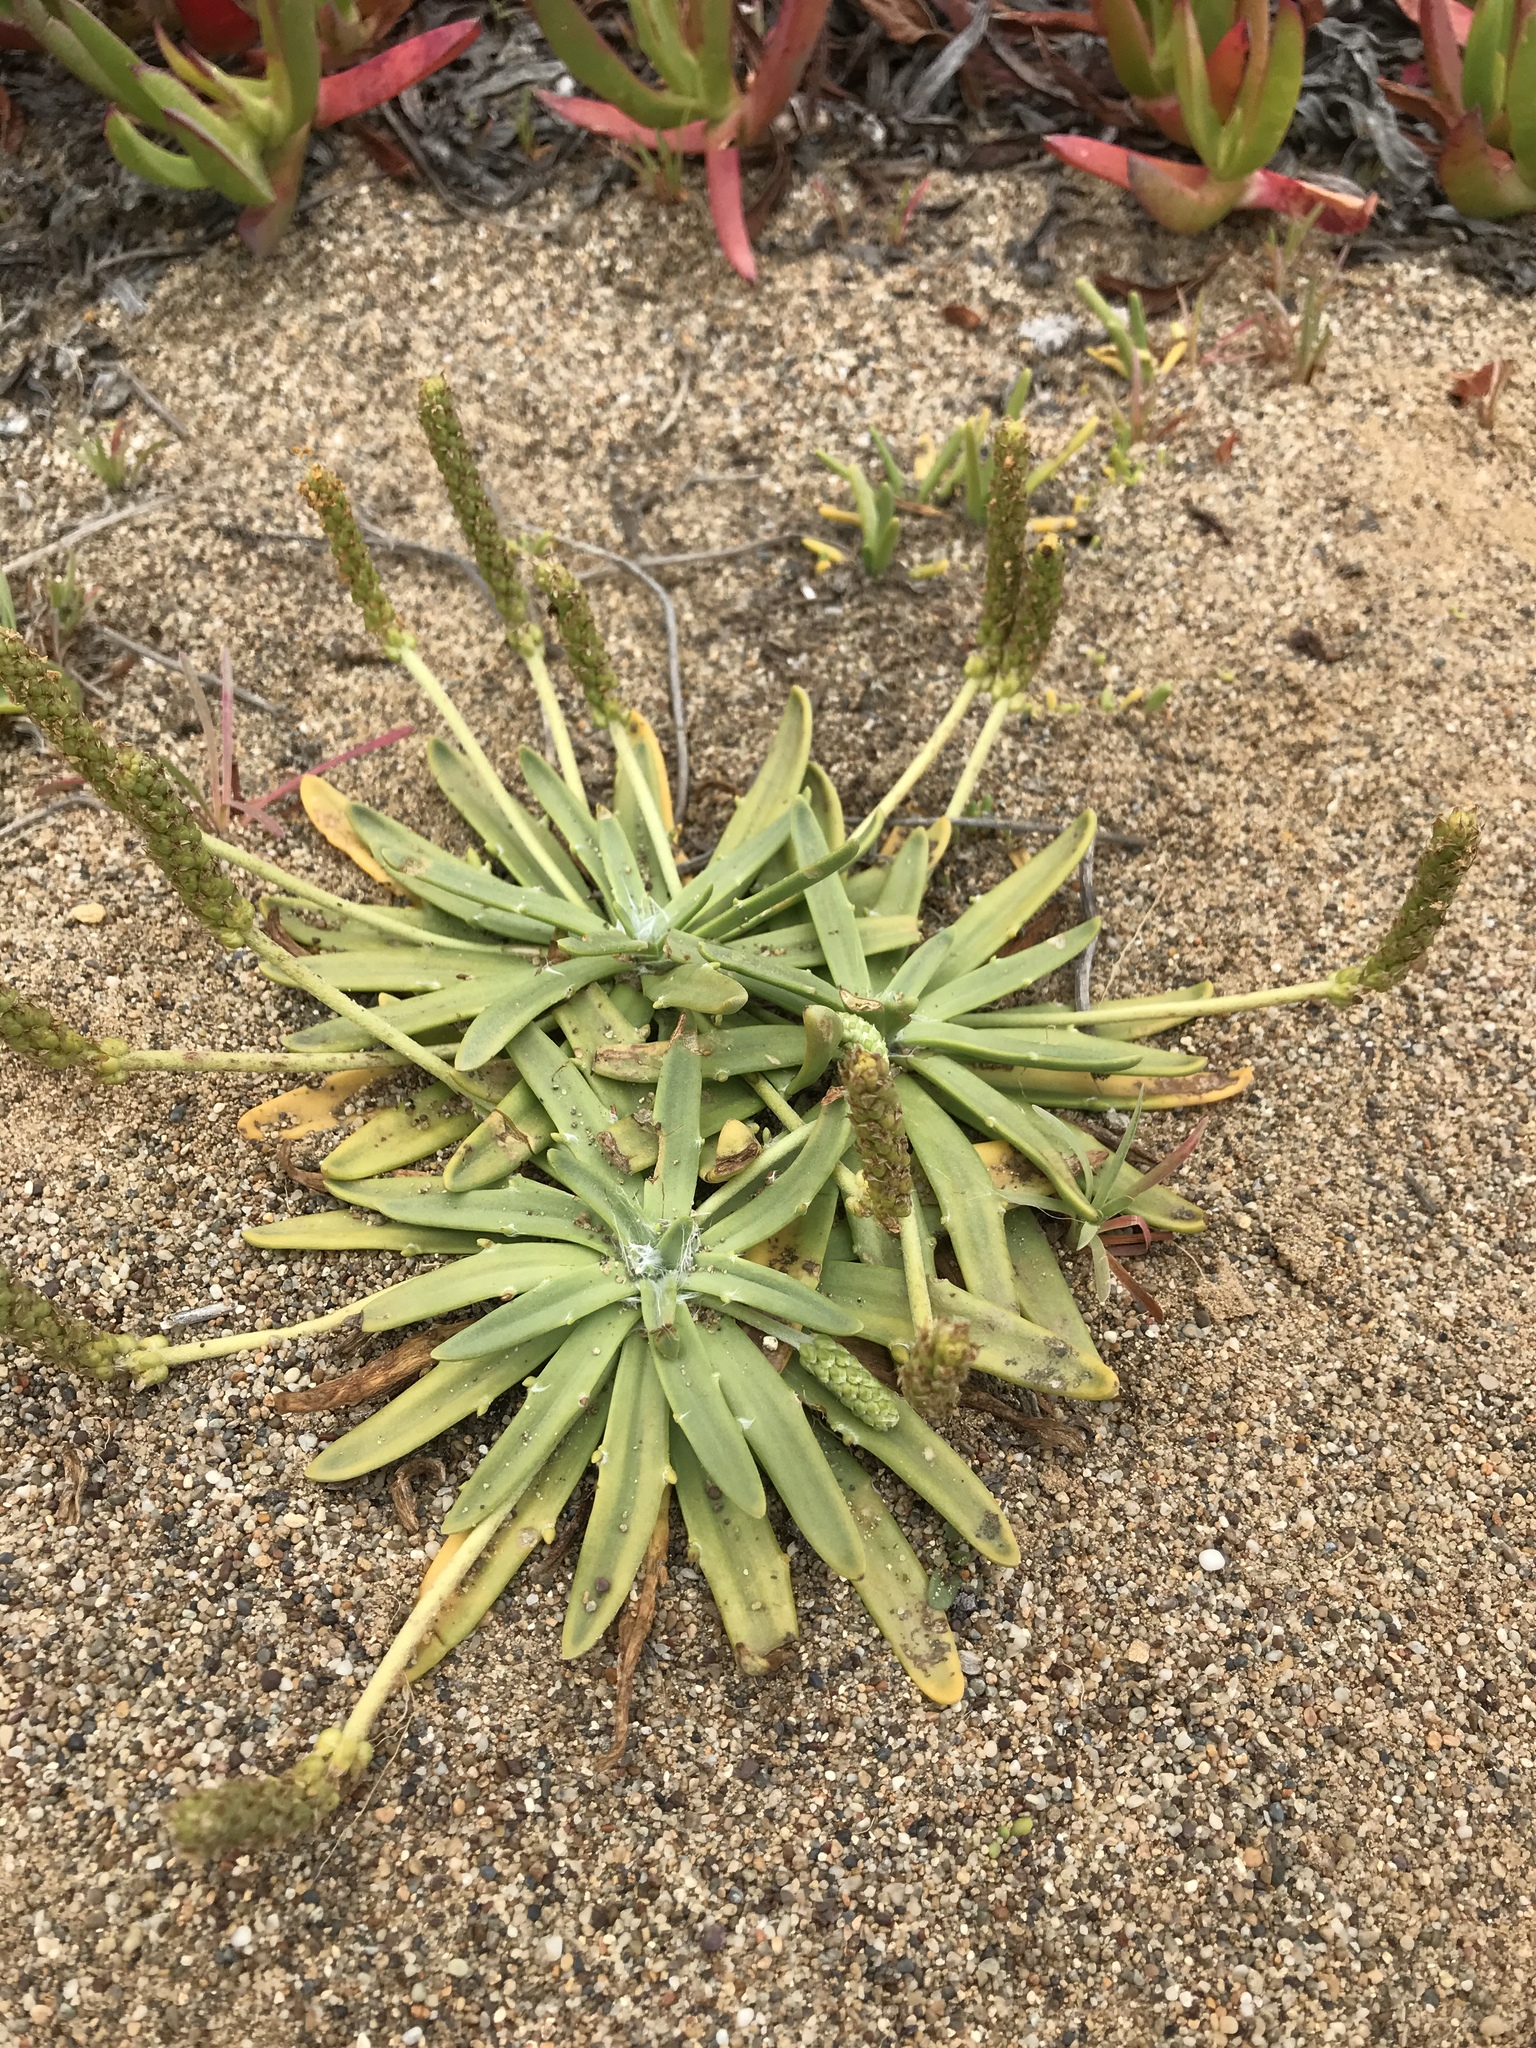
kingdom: Plantae
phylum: Tracheophyta
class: Magnoliopsida
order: Lamiales
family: Plantaginaceae
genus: Plantago
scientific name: Plantago maritima
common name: Sea plantain
